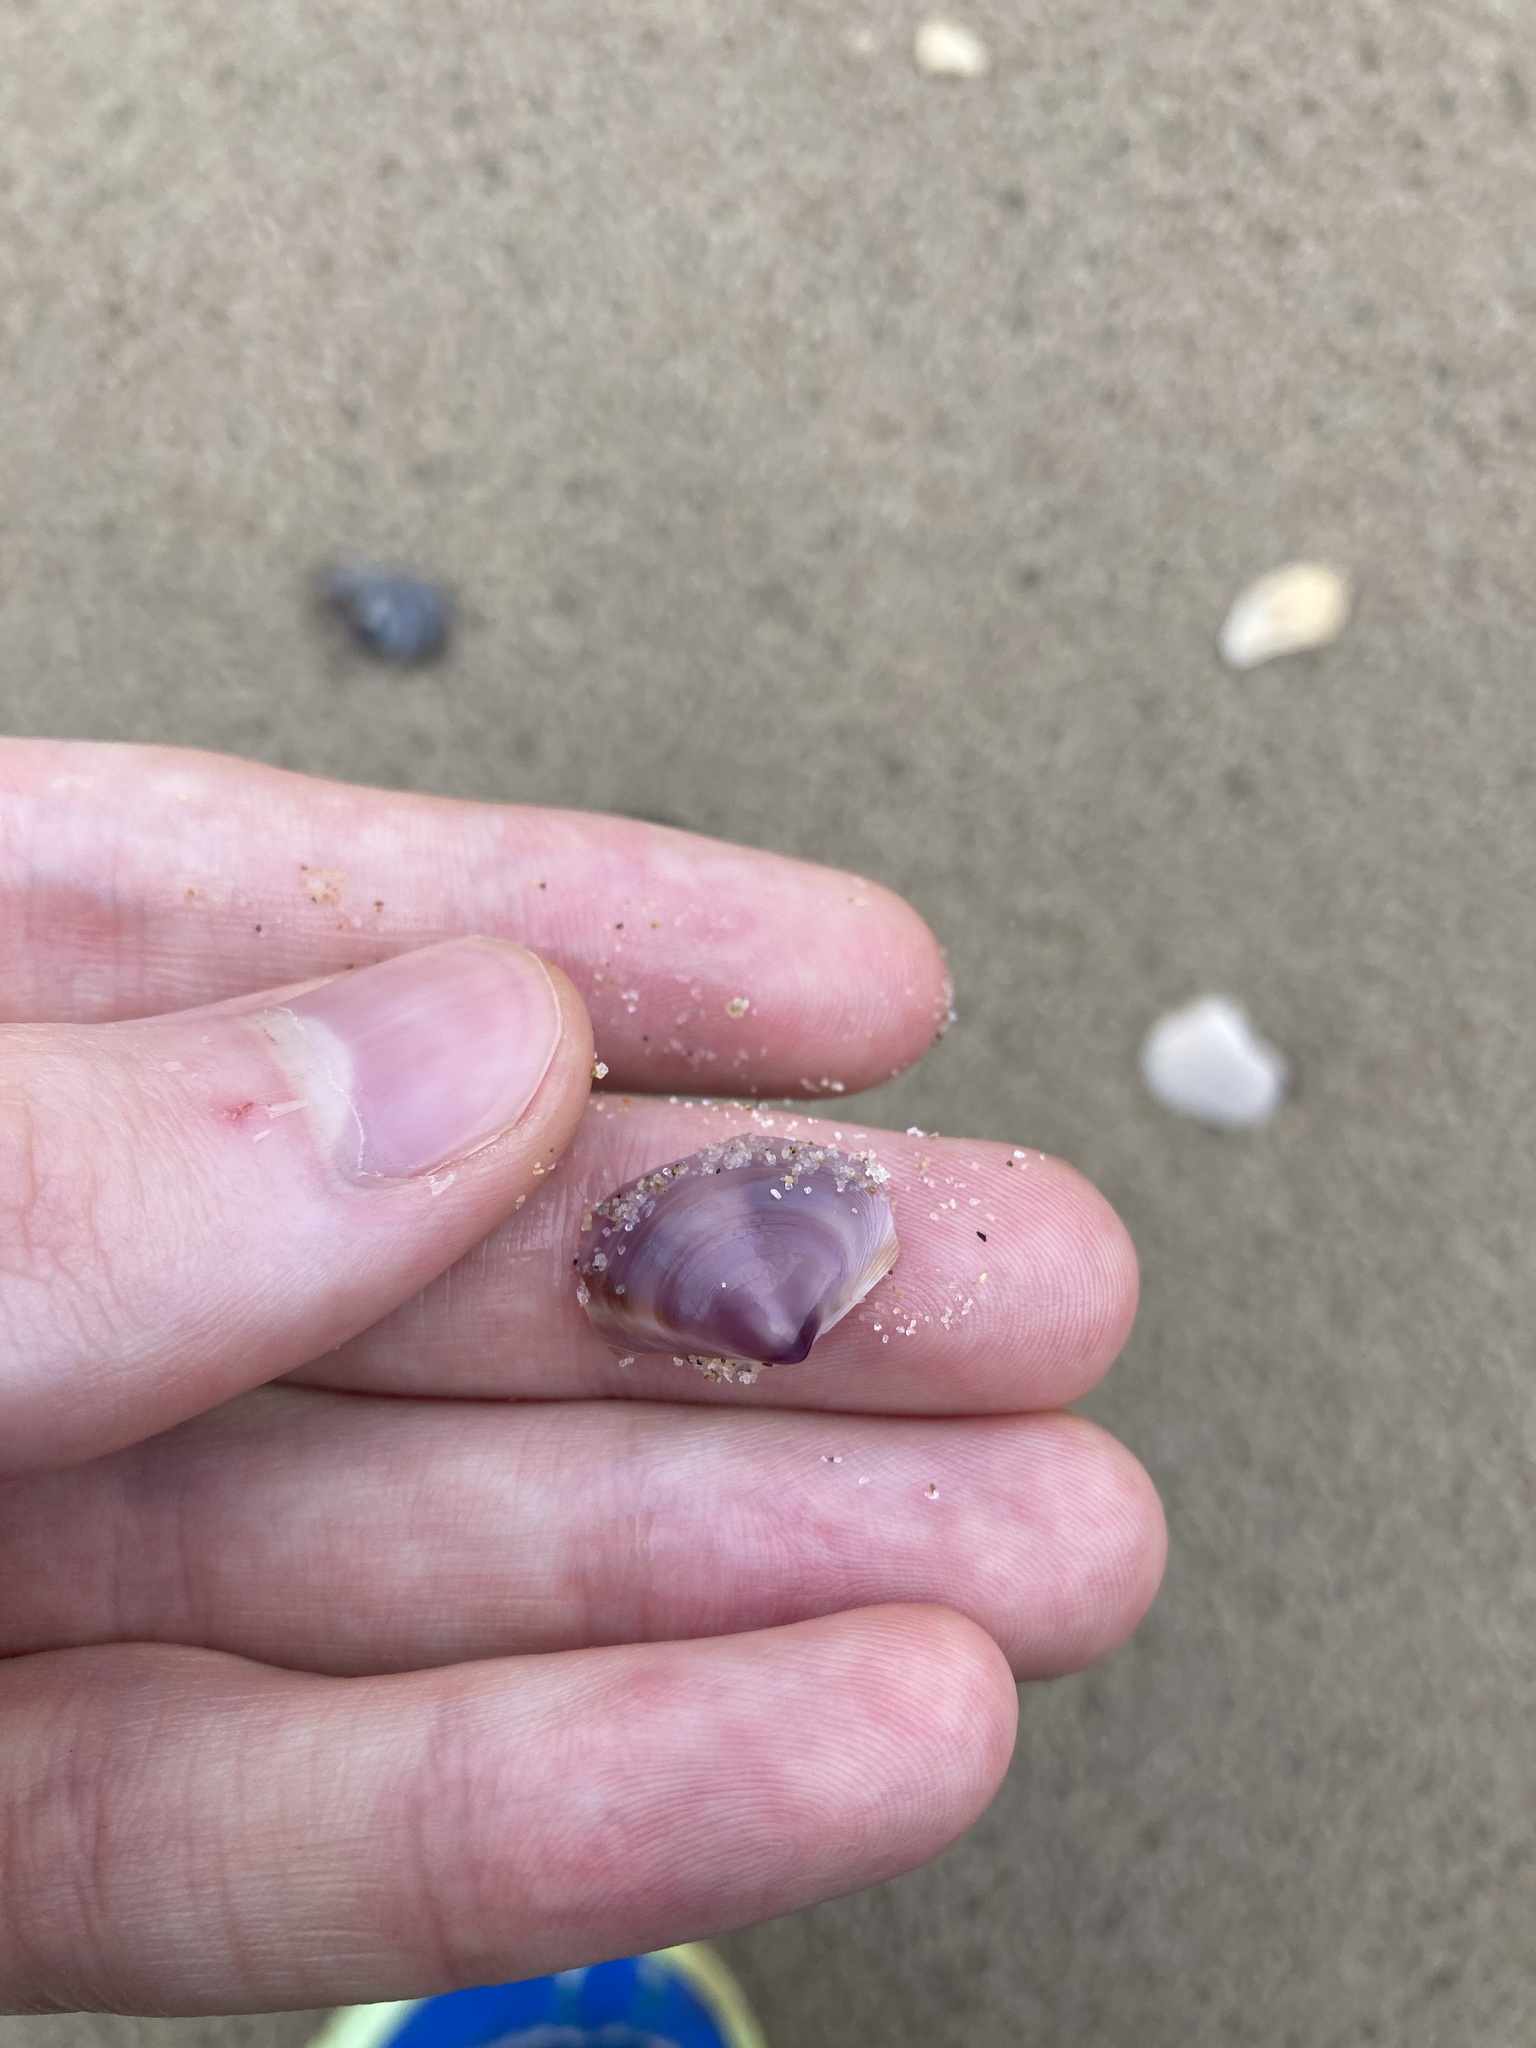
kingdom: Animalia
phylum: Mollusca
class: Bivalvia
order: Venerida
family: Mactridae
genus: Austromactra
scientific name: Austromactra contraria
